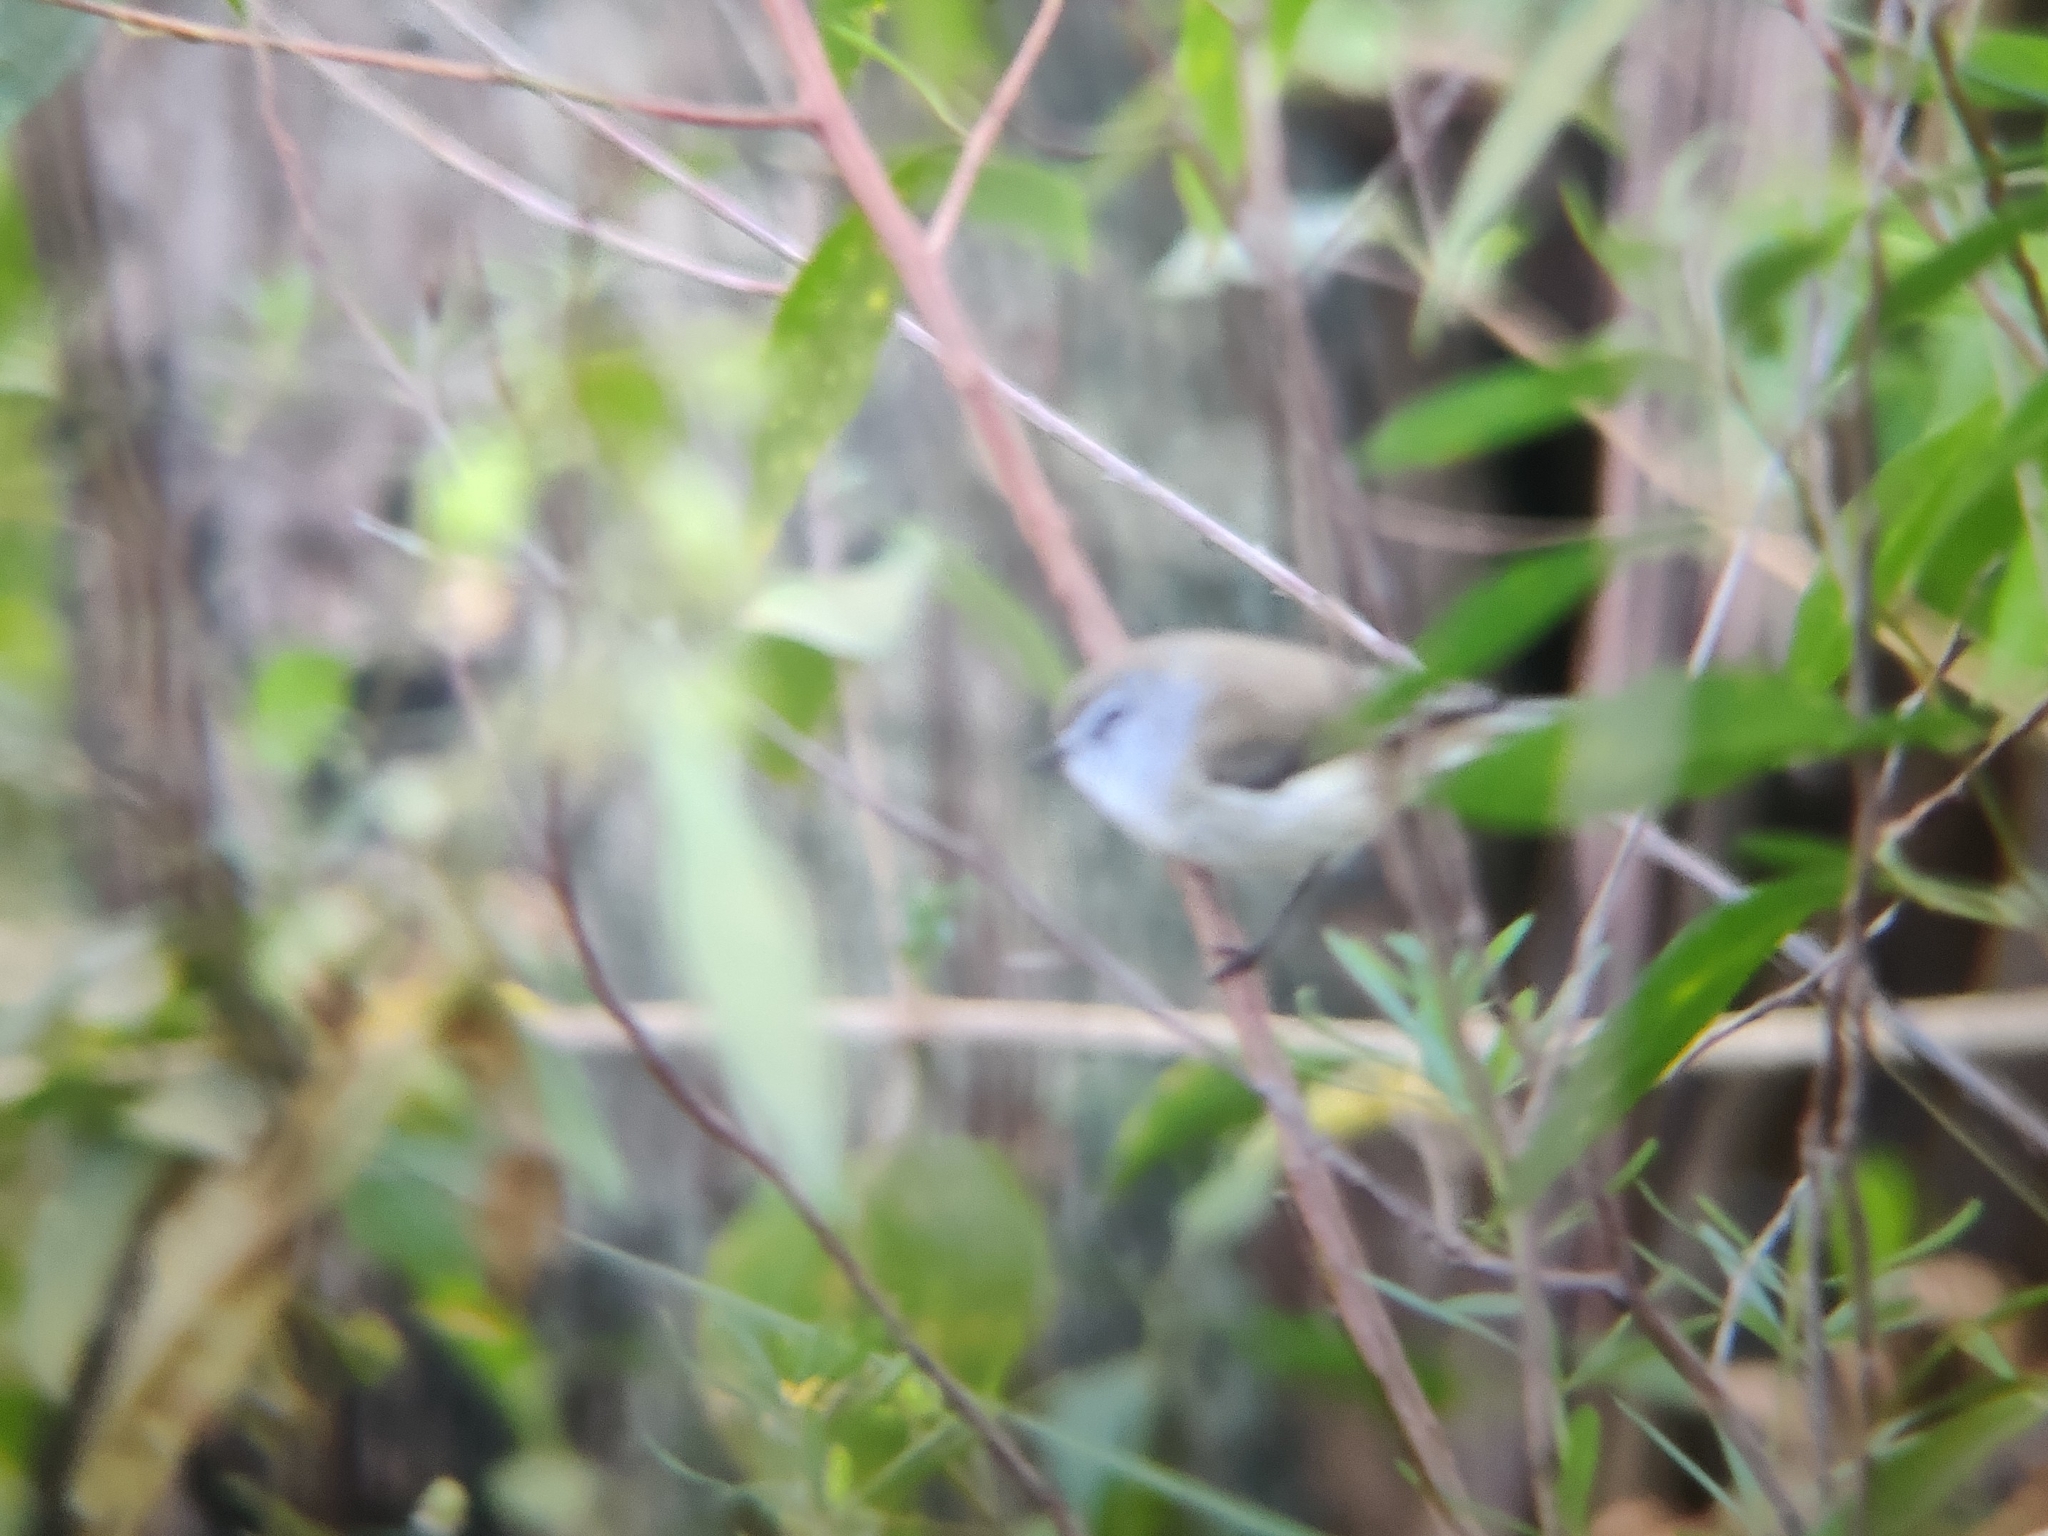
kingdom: Animalia
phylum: Chordata
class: Aves
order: Passeriformes
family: Acanthizidae
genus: Gerygone
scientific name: Gerygone mouki
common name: Brown gerygone
